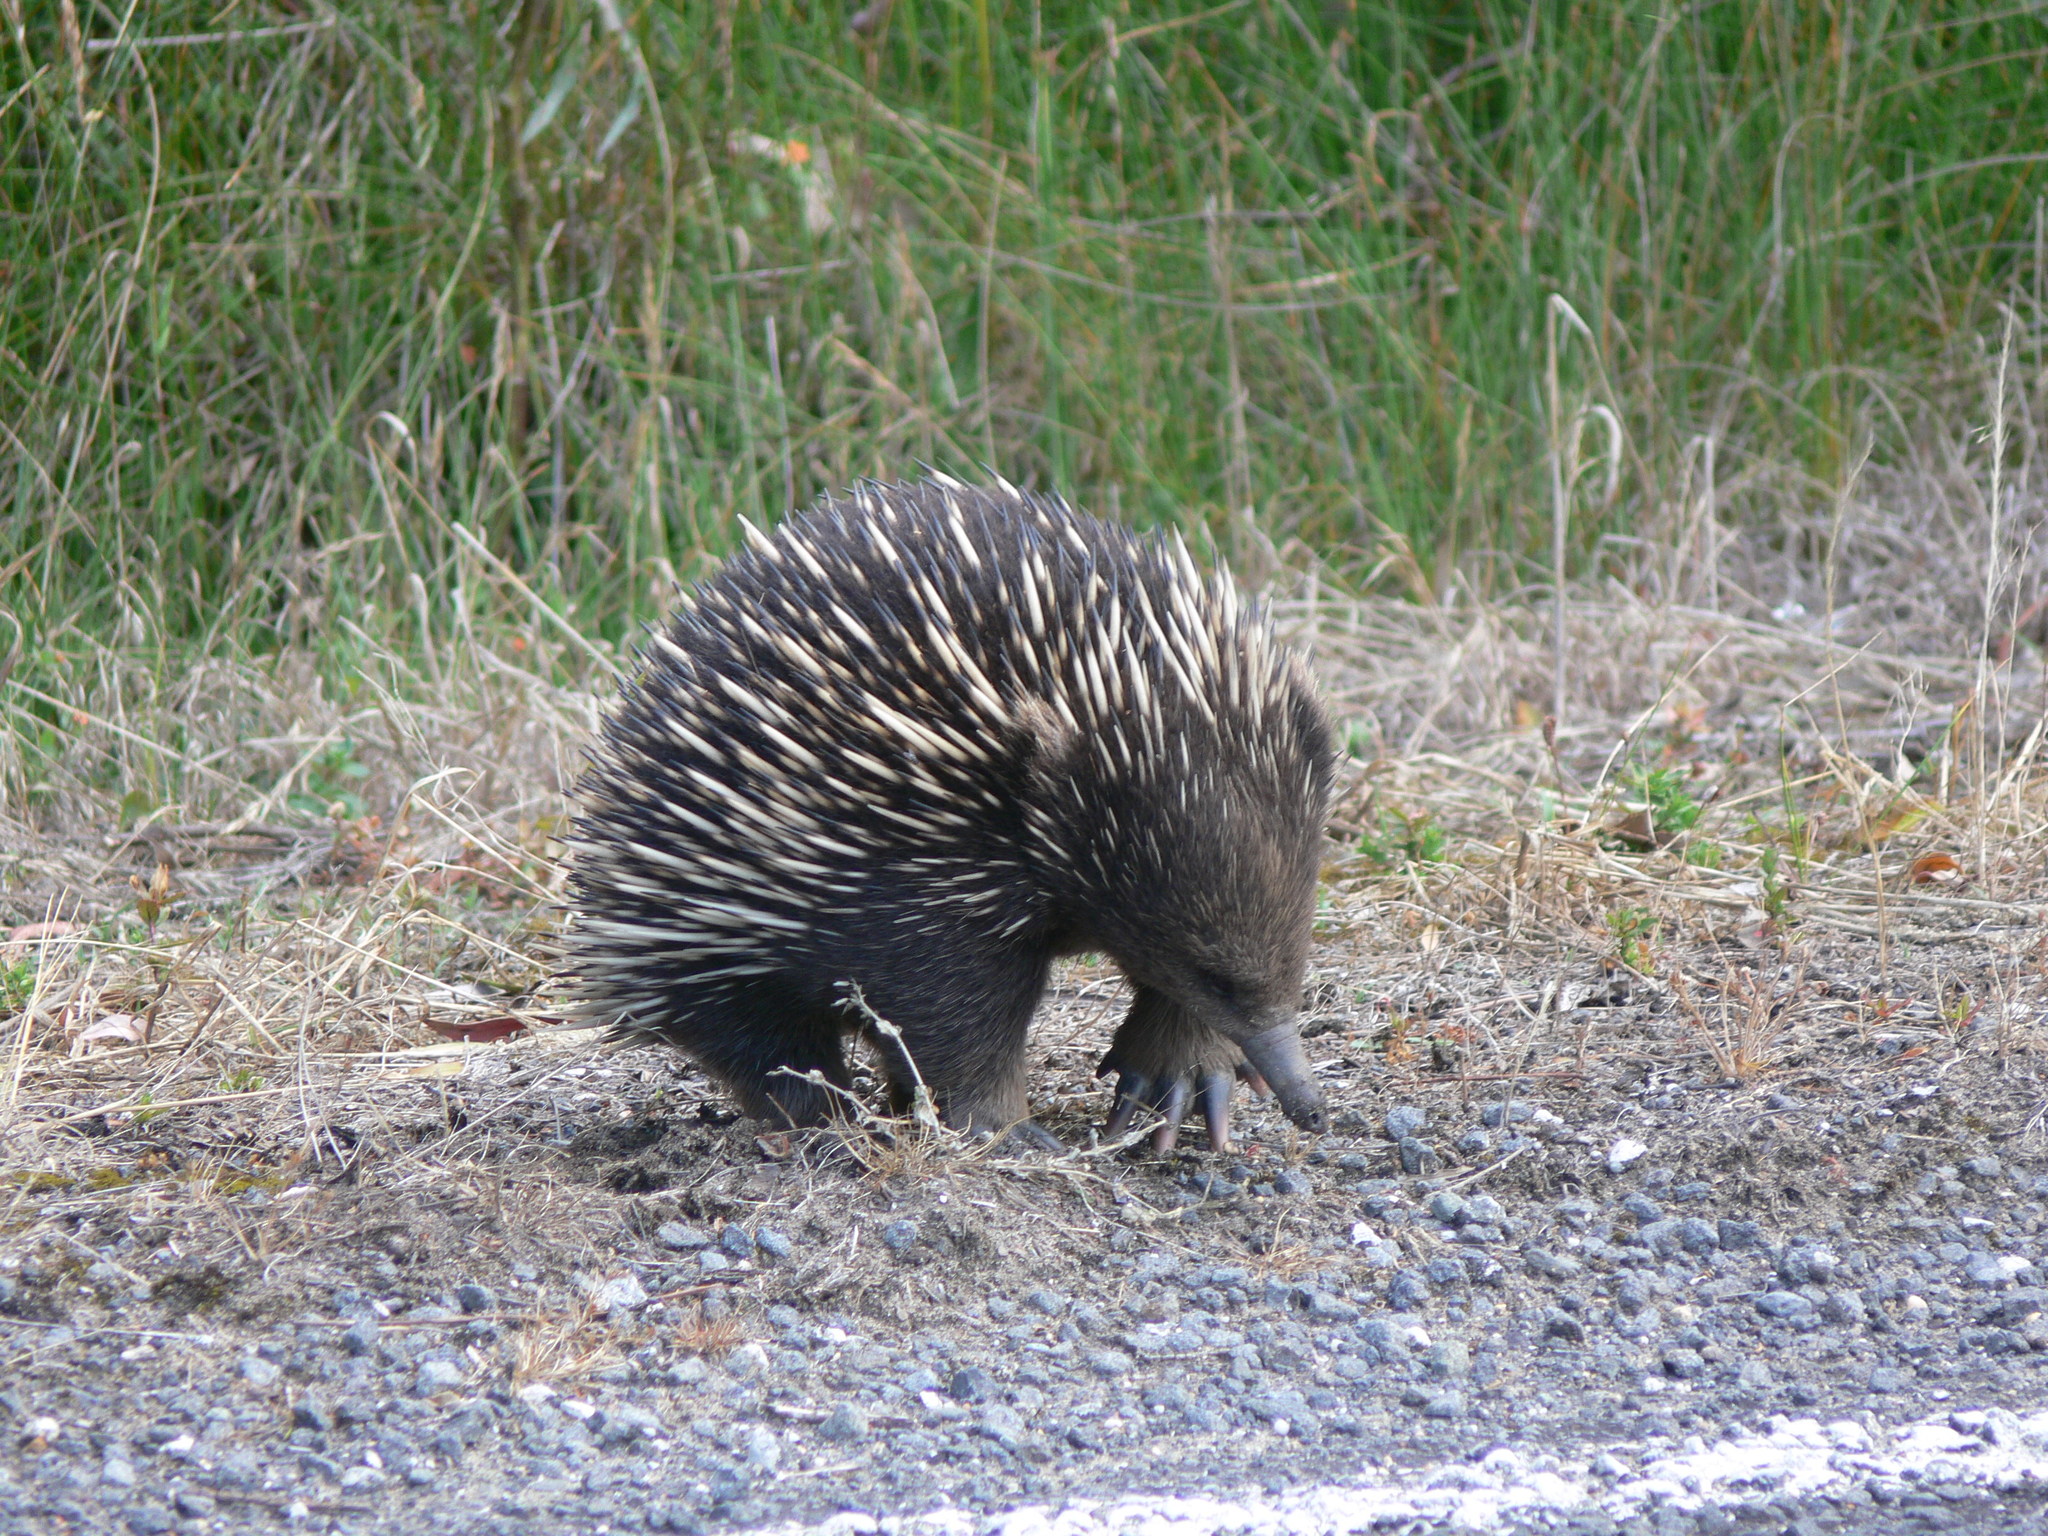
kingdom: Animalia
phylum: Chordata
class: Mammalia
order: Monotremata
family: Tachyglossidae
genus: Tachyglossus
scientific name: Tachyglossus aculeatus
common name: Short-beaked echidna
